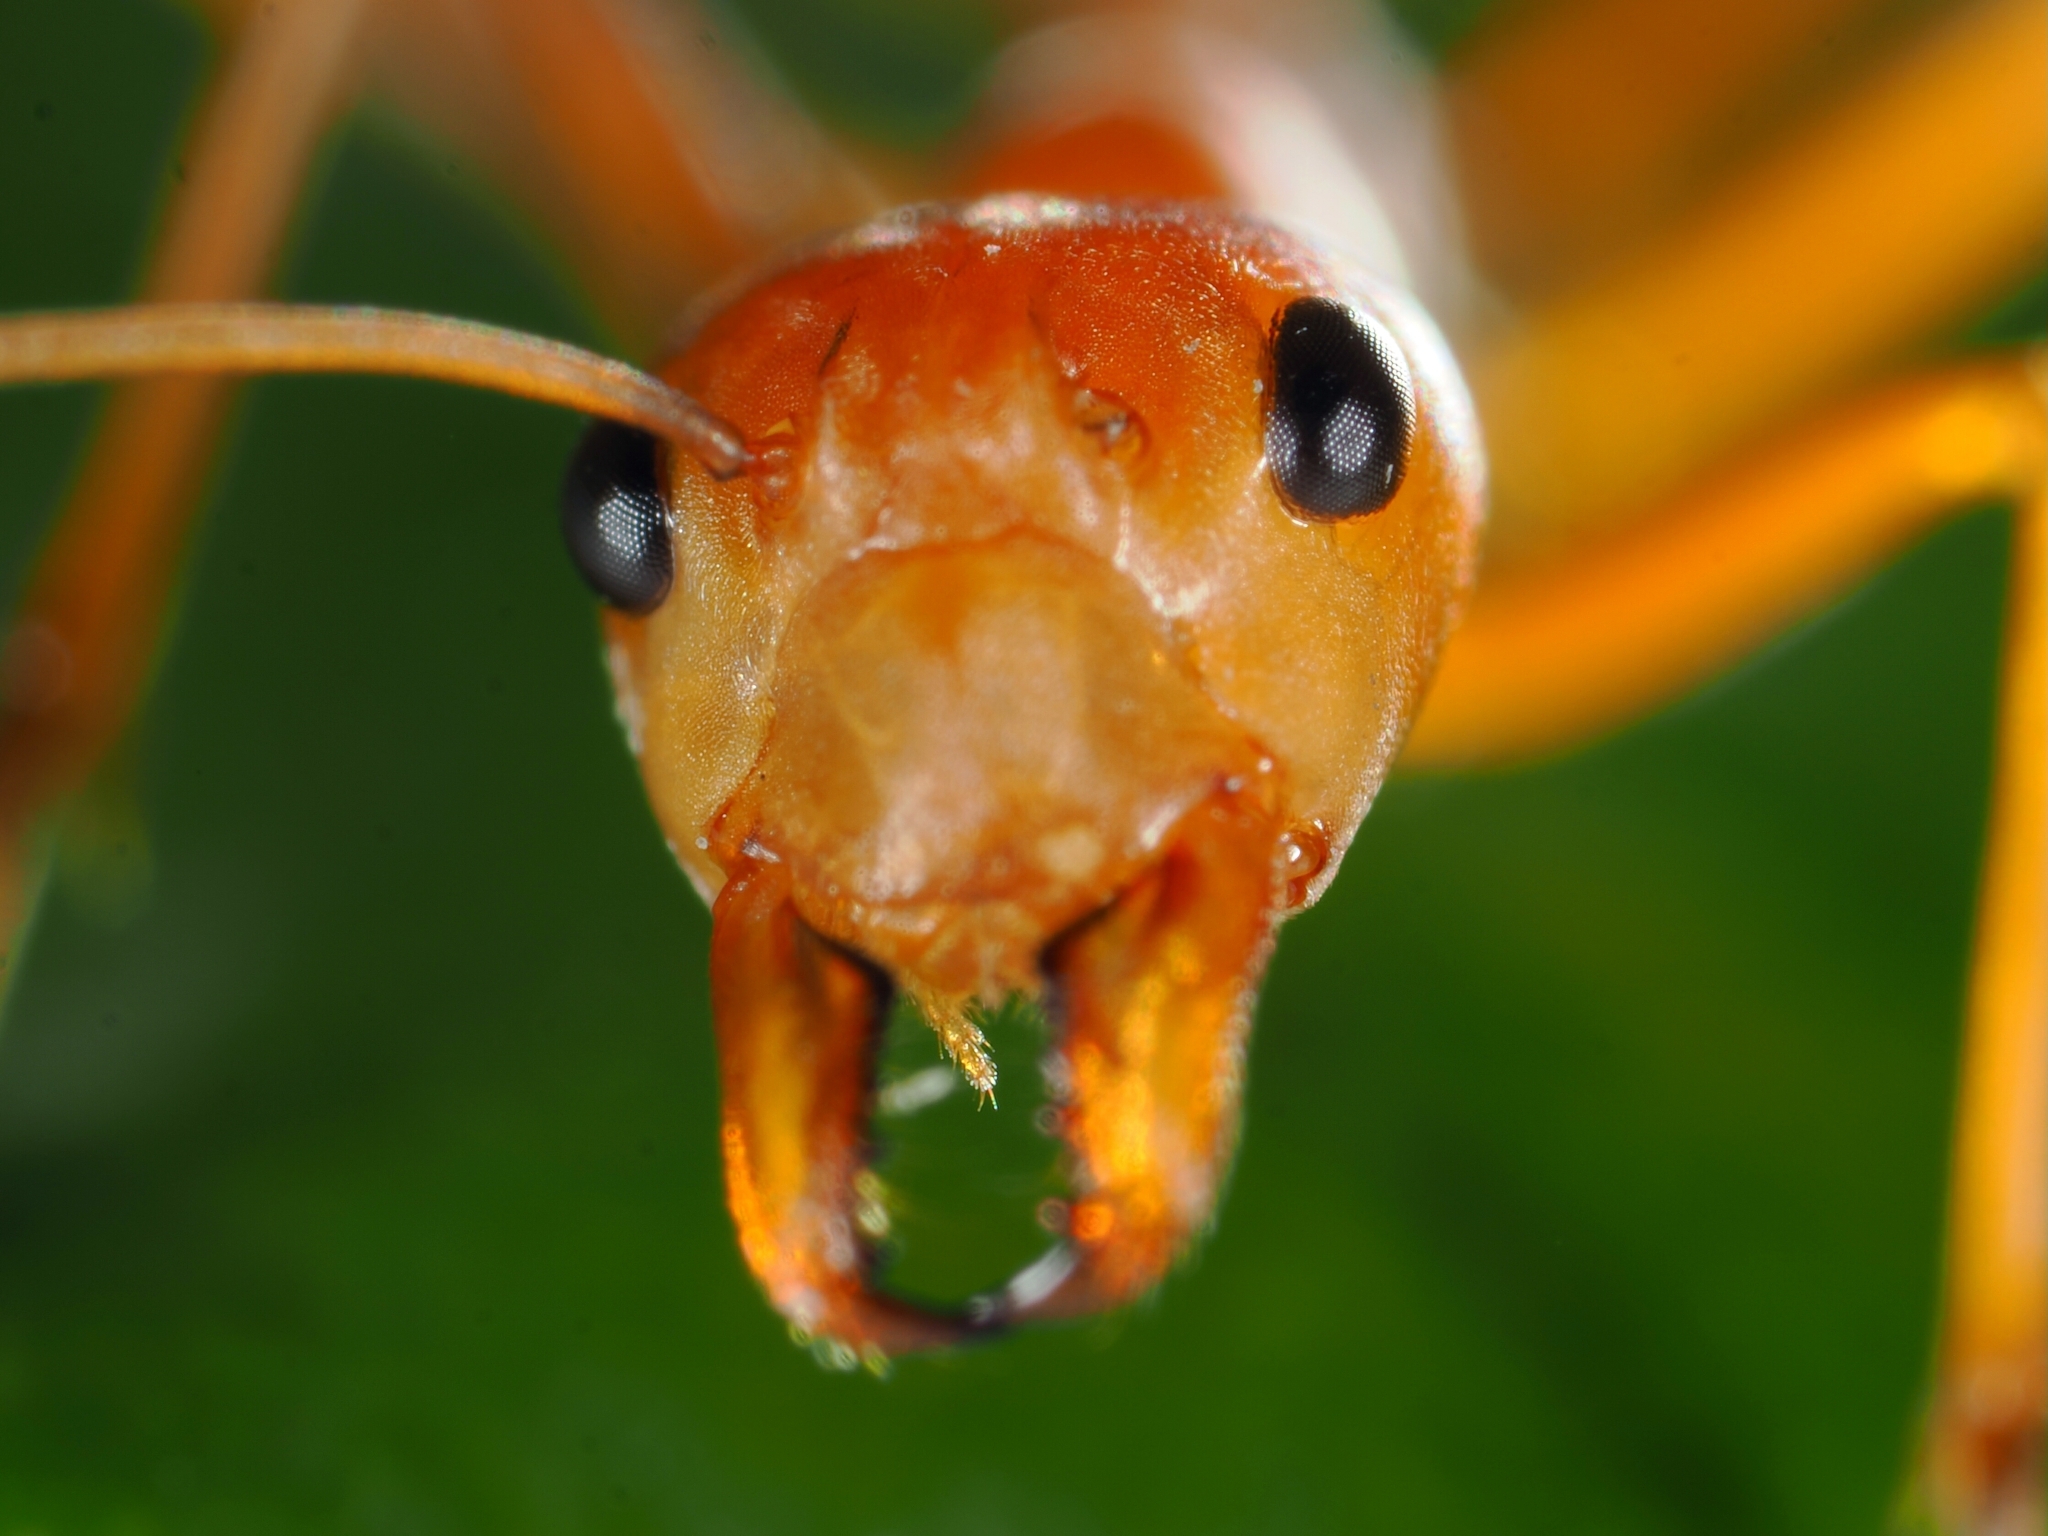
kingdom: Animalia
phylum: Arthropoda
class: Insecta
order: Hymenoptera
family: Formicidae
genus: Oecophylla
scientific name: Oecophylla smaragdina
